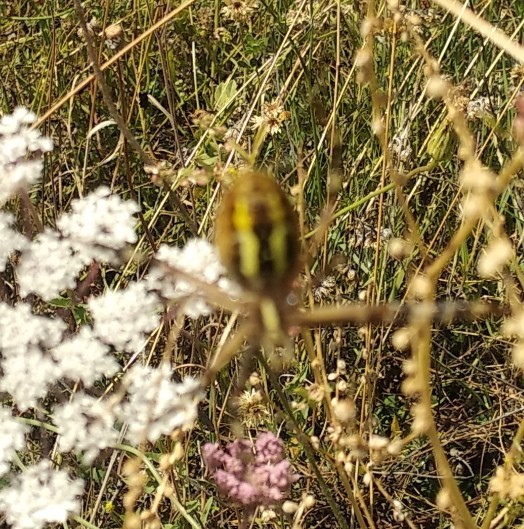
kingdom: Animalia
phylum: Arthropoda
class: Arachnida
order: Araneae
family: Araneidae
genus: Argiope
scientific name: Argiope bruennichi
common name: Wasp spider
